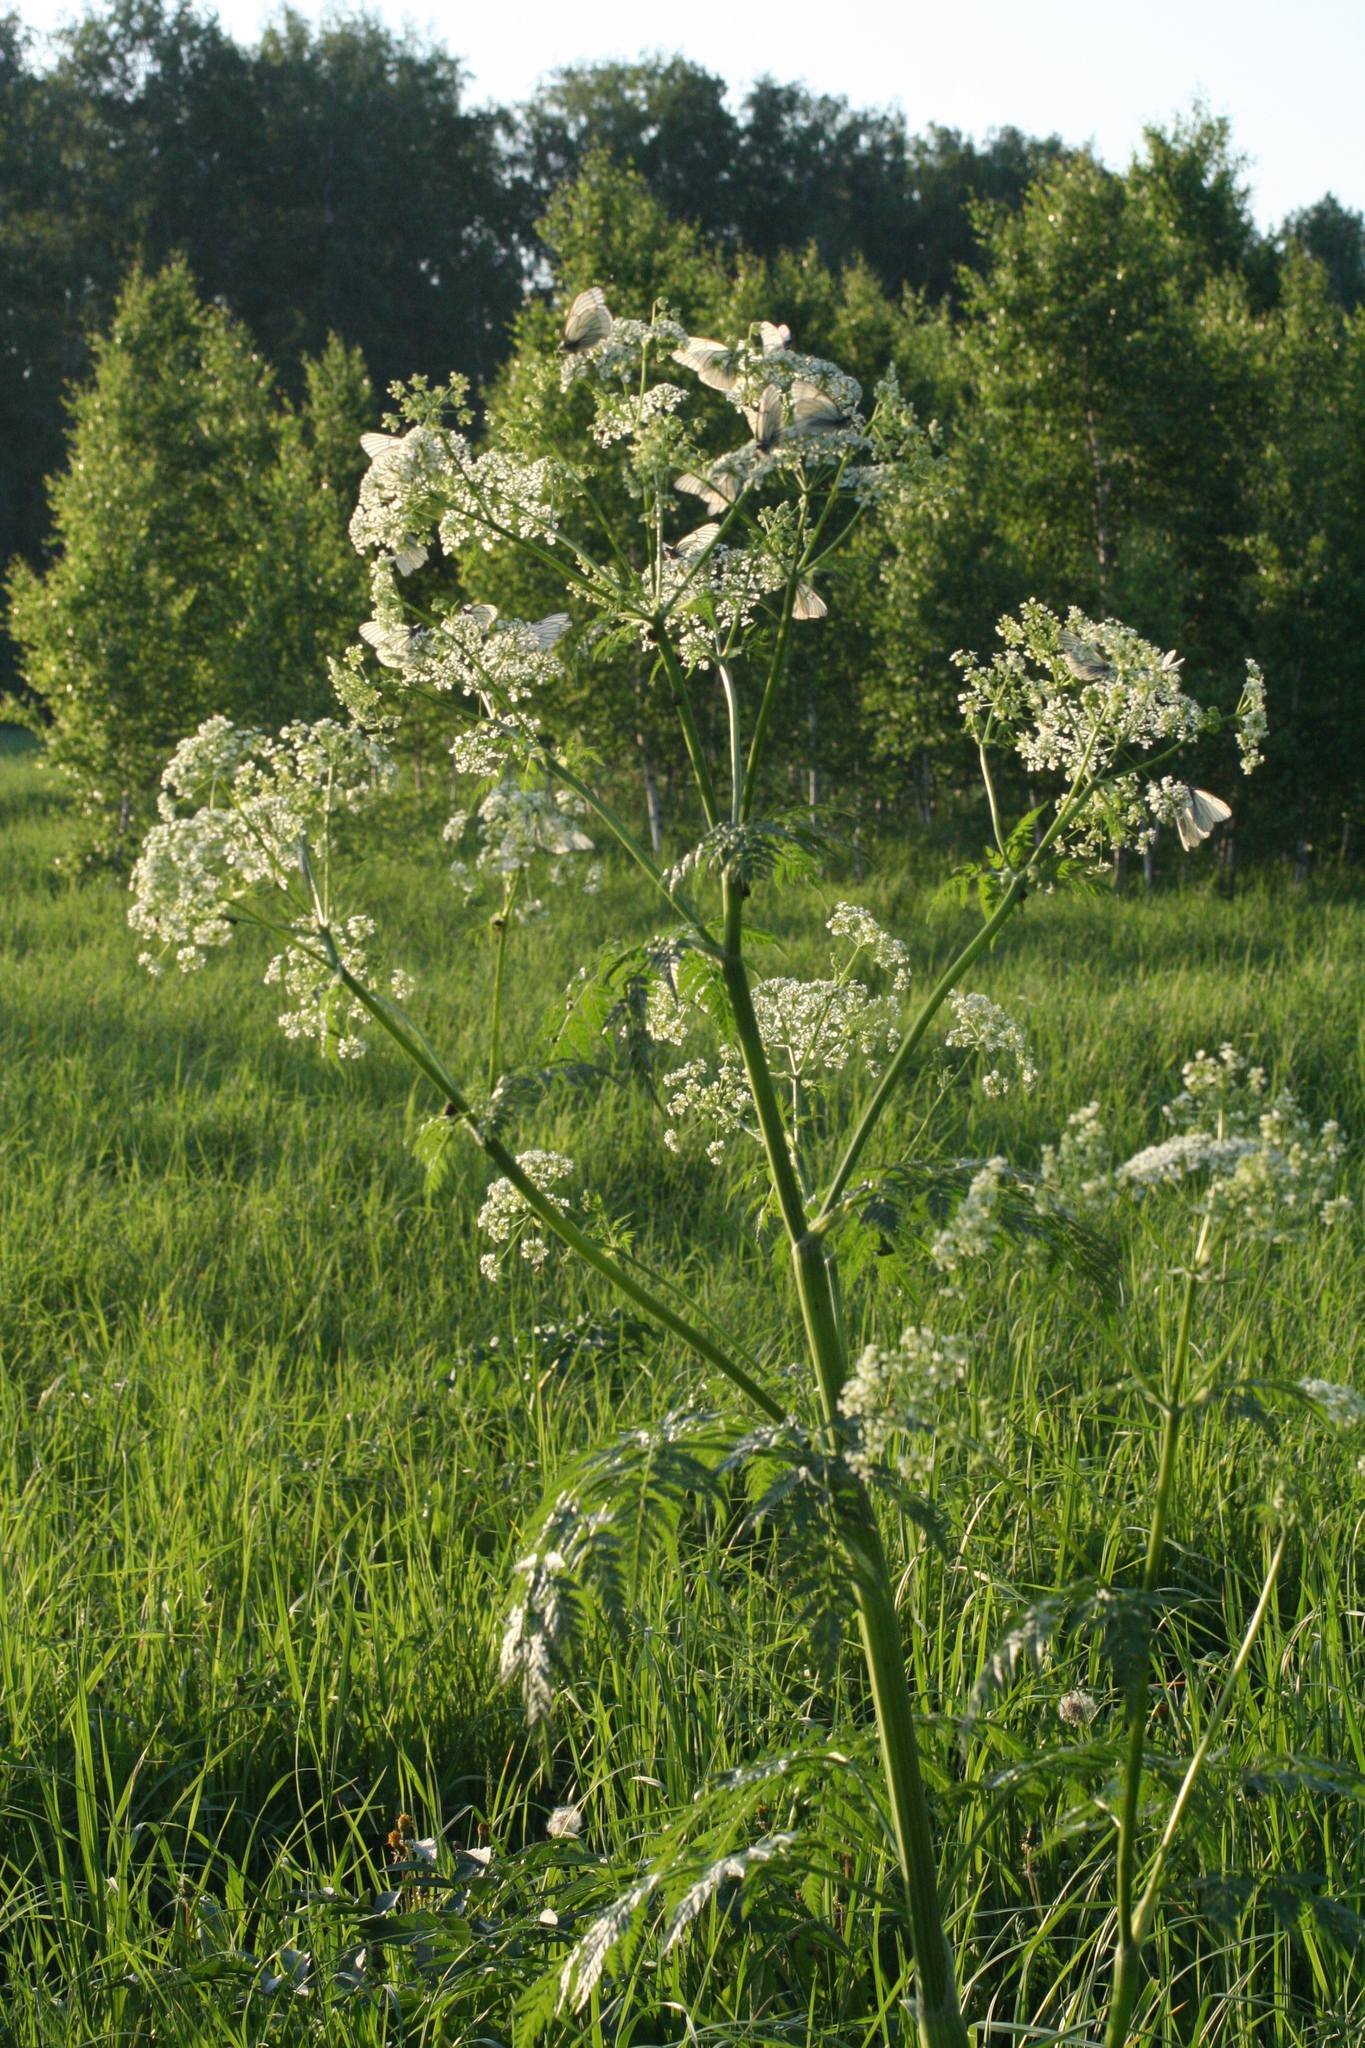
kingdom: Plantae
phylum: Tracheophyta
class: Magnoliopsida
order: Apiales
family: Apiaceae
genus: Anthriscus
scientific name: Anthriscus sylvestris
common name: Cow parsley
